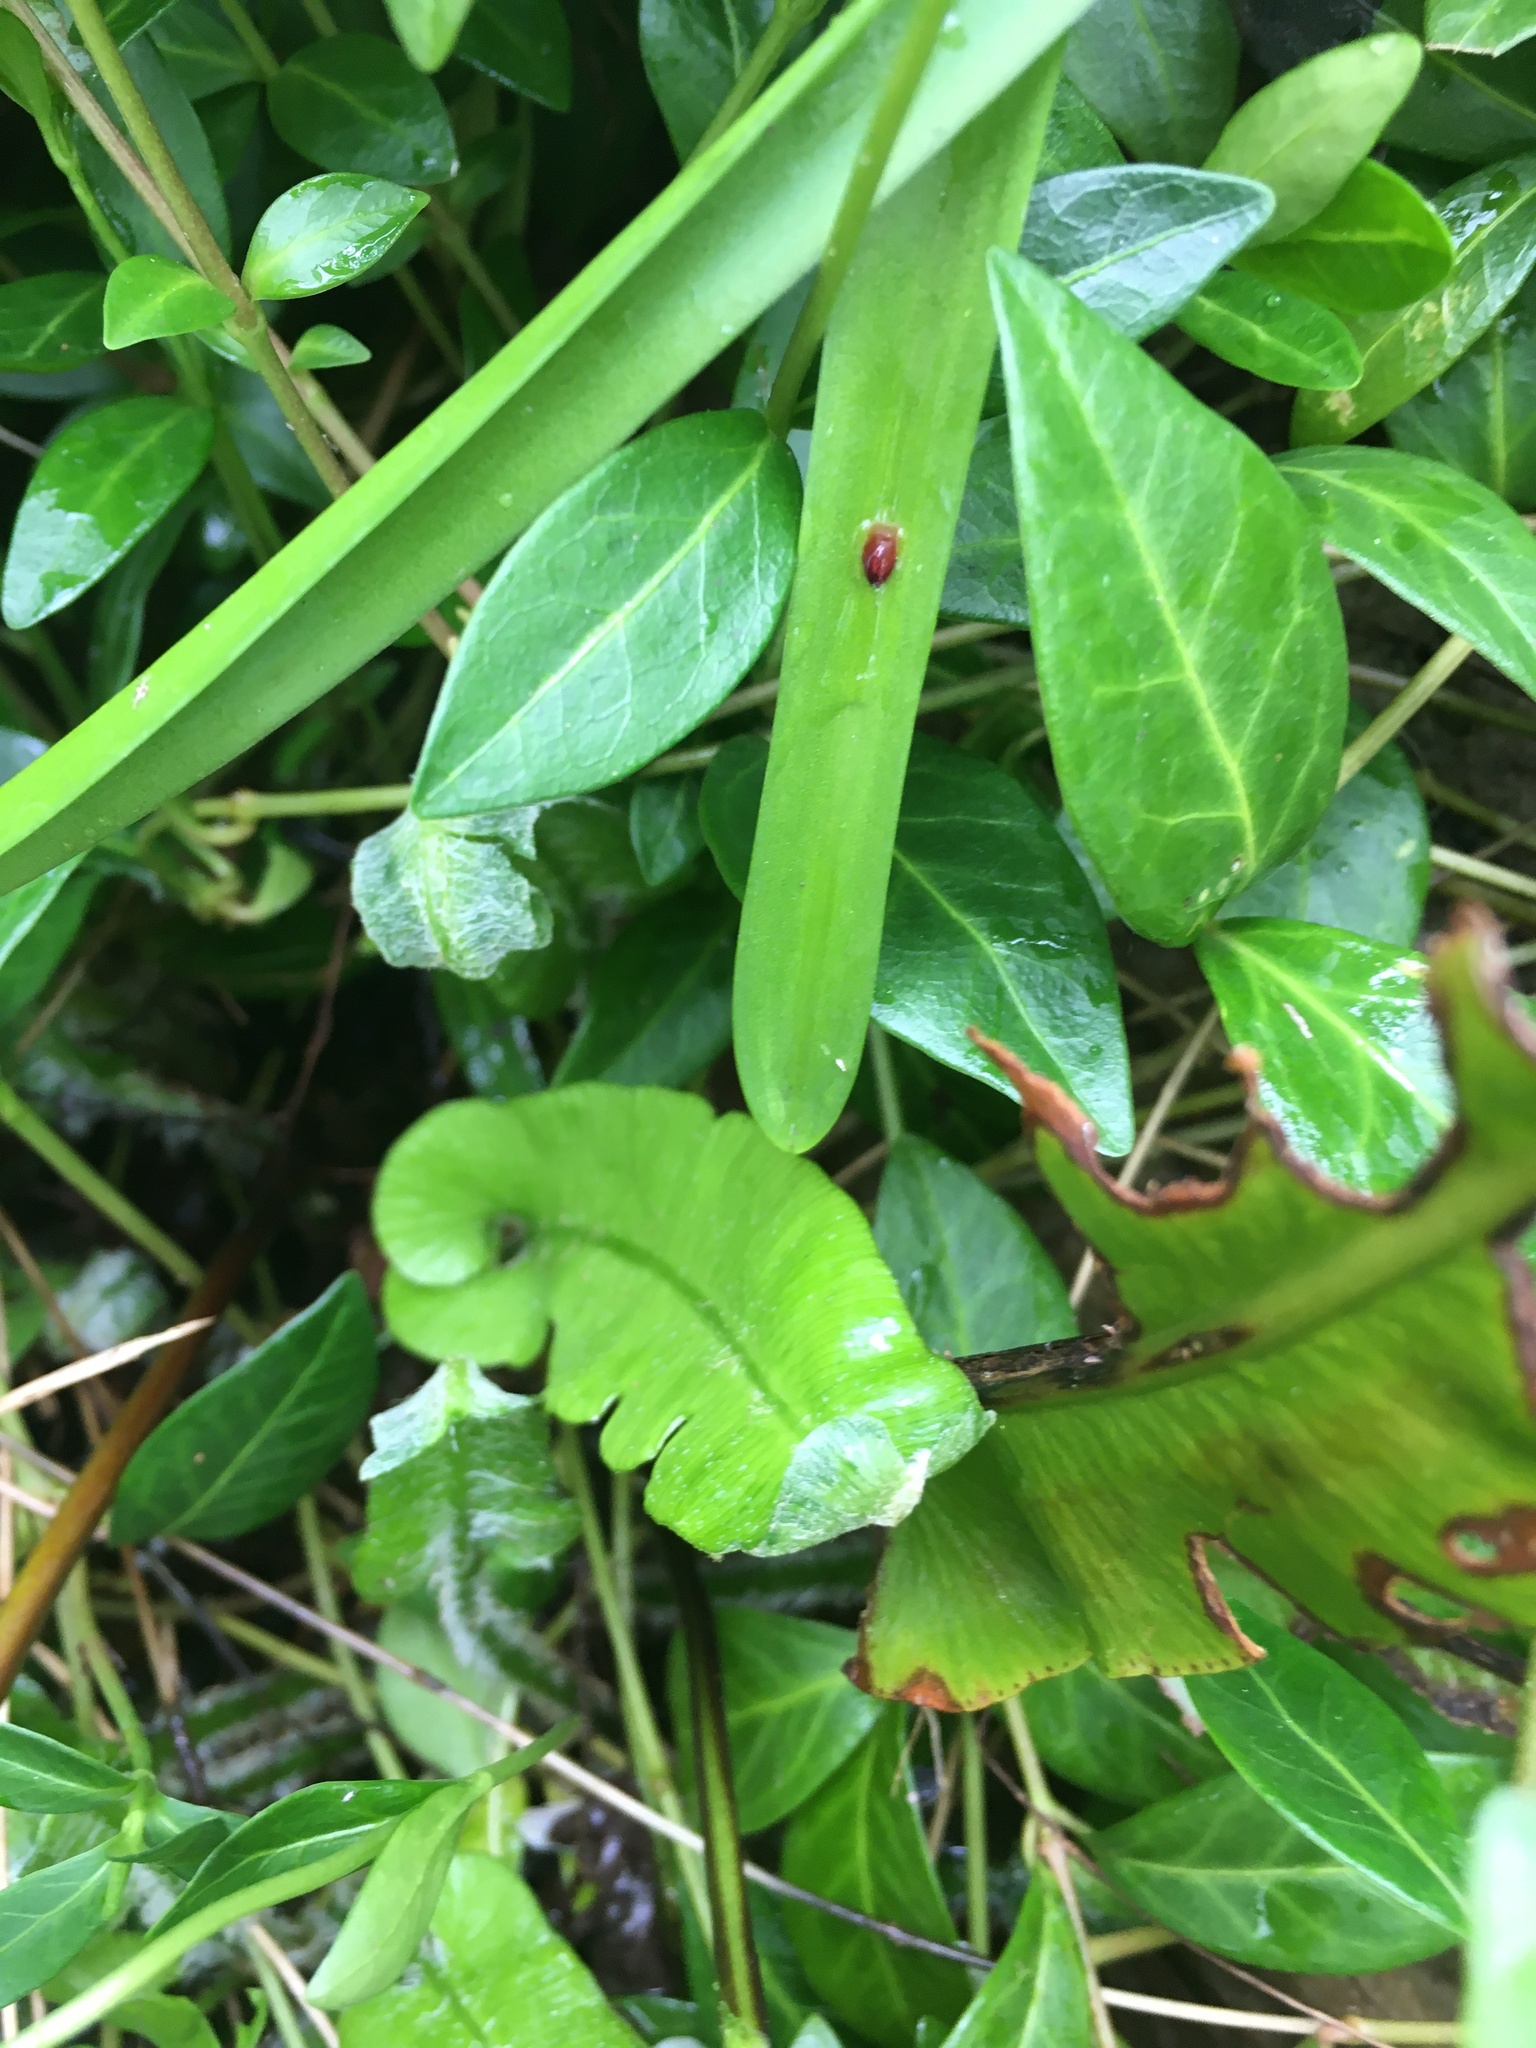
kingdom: Plantae
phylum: Tracheophyta
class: Polypodiopsida
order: Polypodiales
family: Aspleniaceae
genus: Asplenium
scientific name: Asplenium scolopendrium
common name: Hart's-tongue fern
